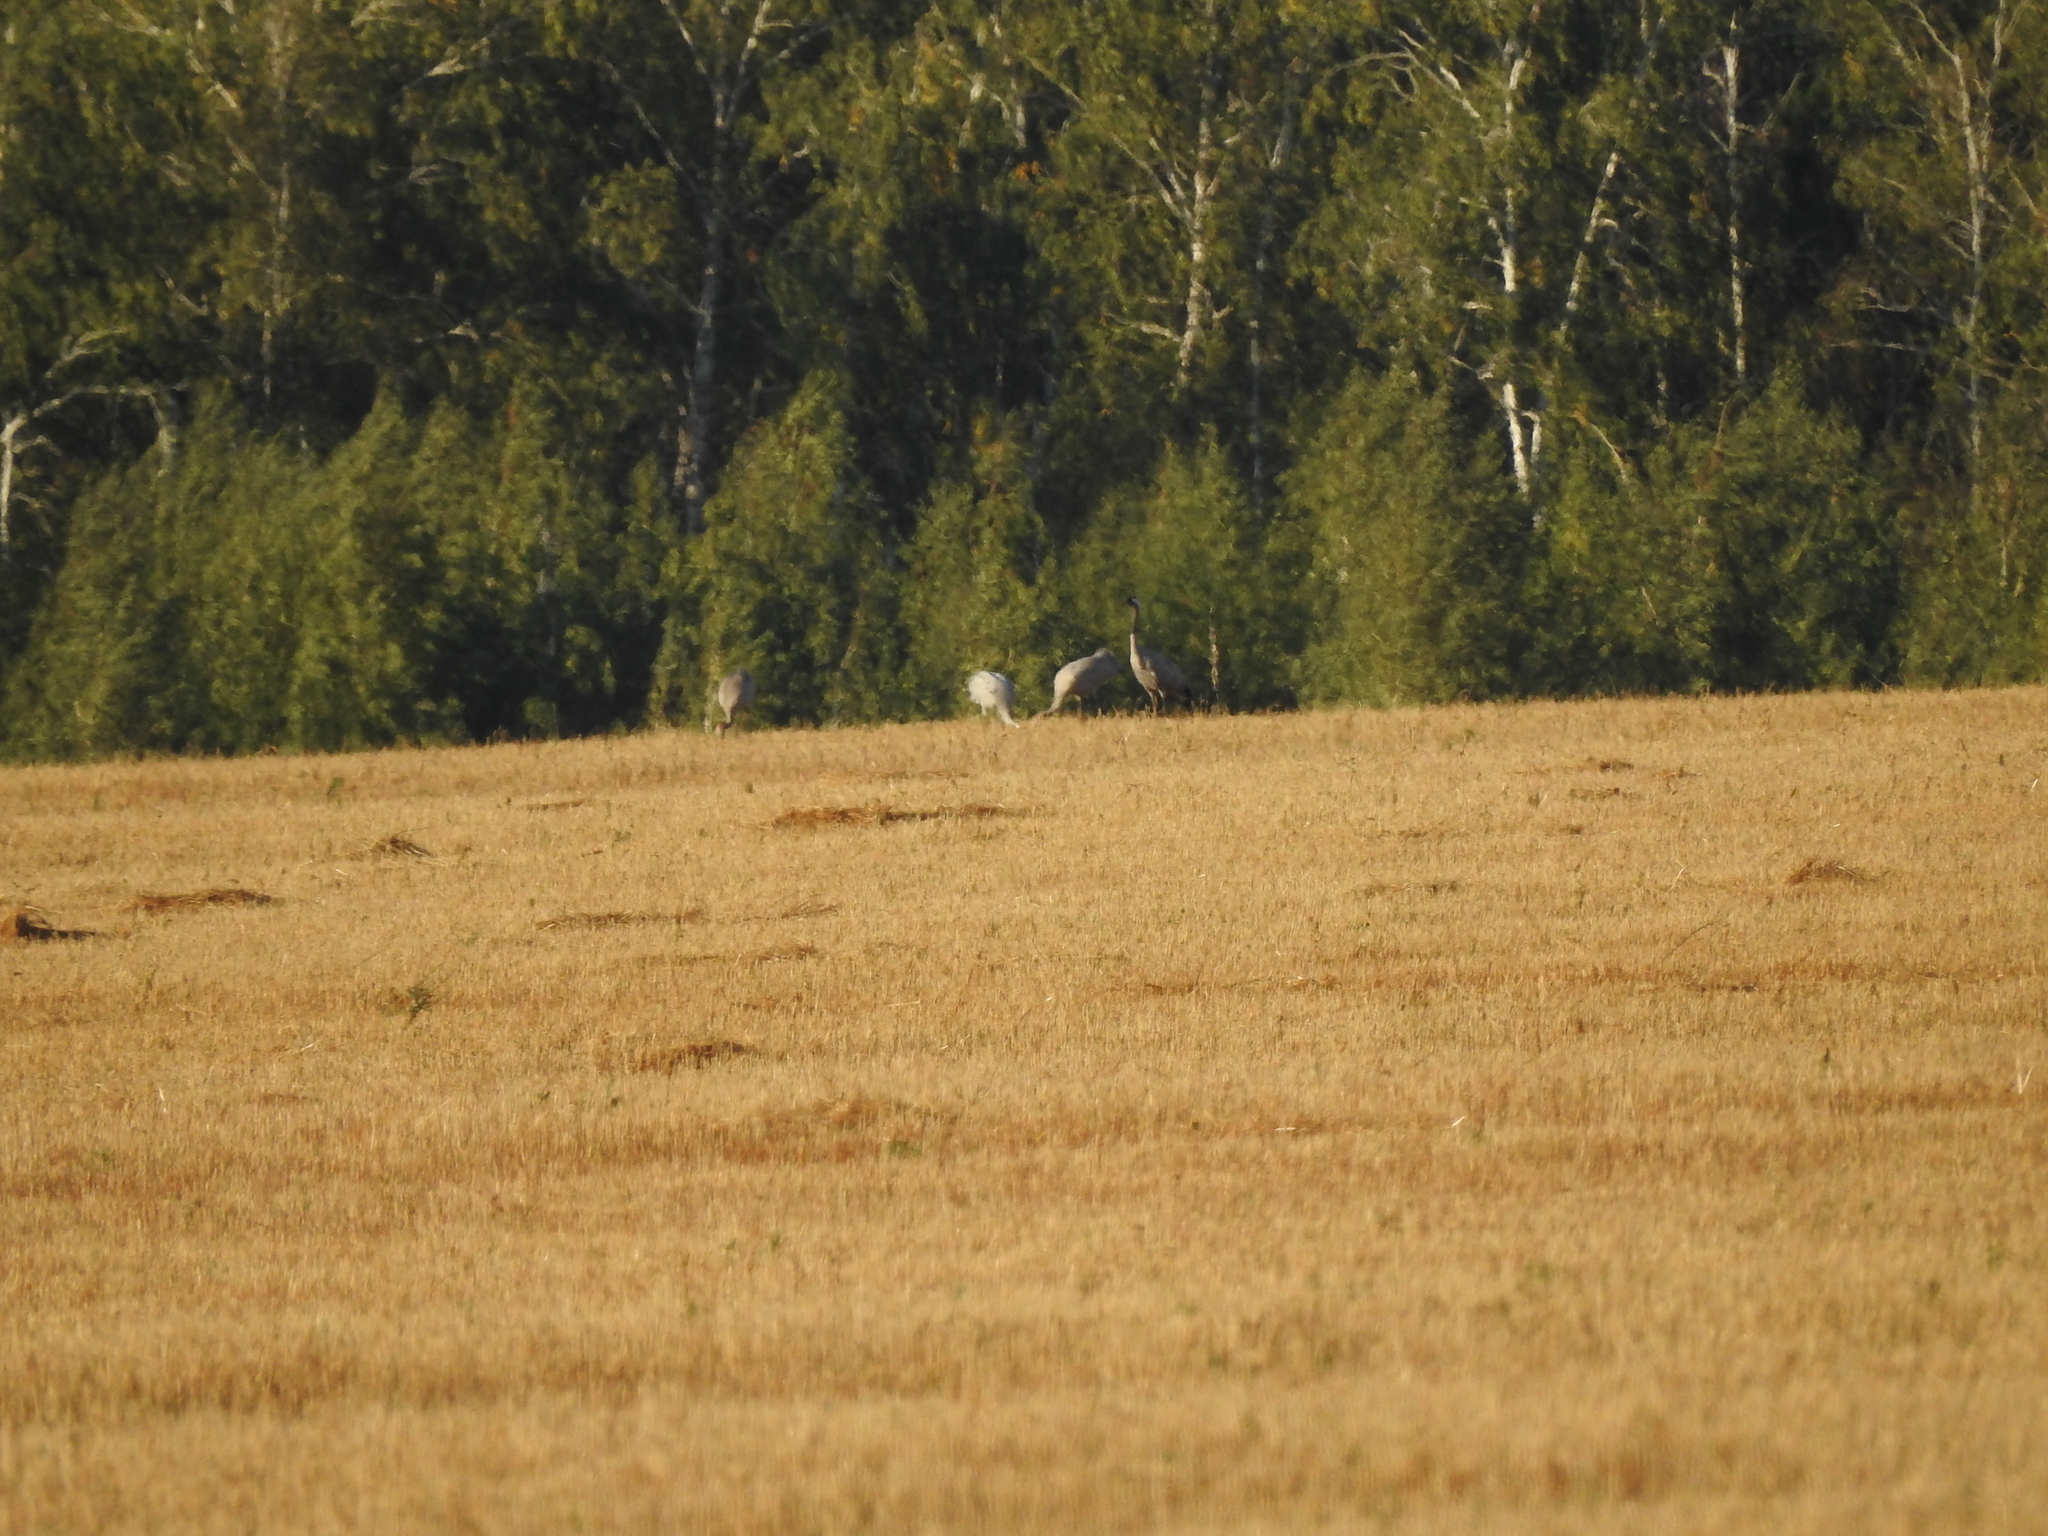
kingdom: Animalia
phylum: Chordata
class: Aves
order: Gruiformes
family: Gruidae
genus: Grus
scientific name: Grus grus
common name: Common crane
